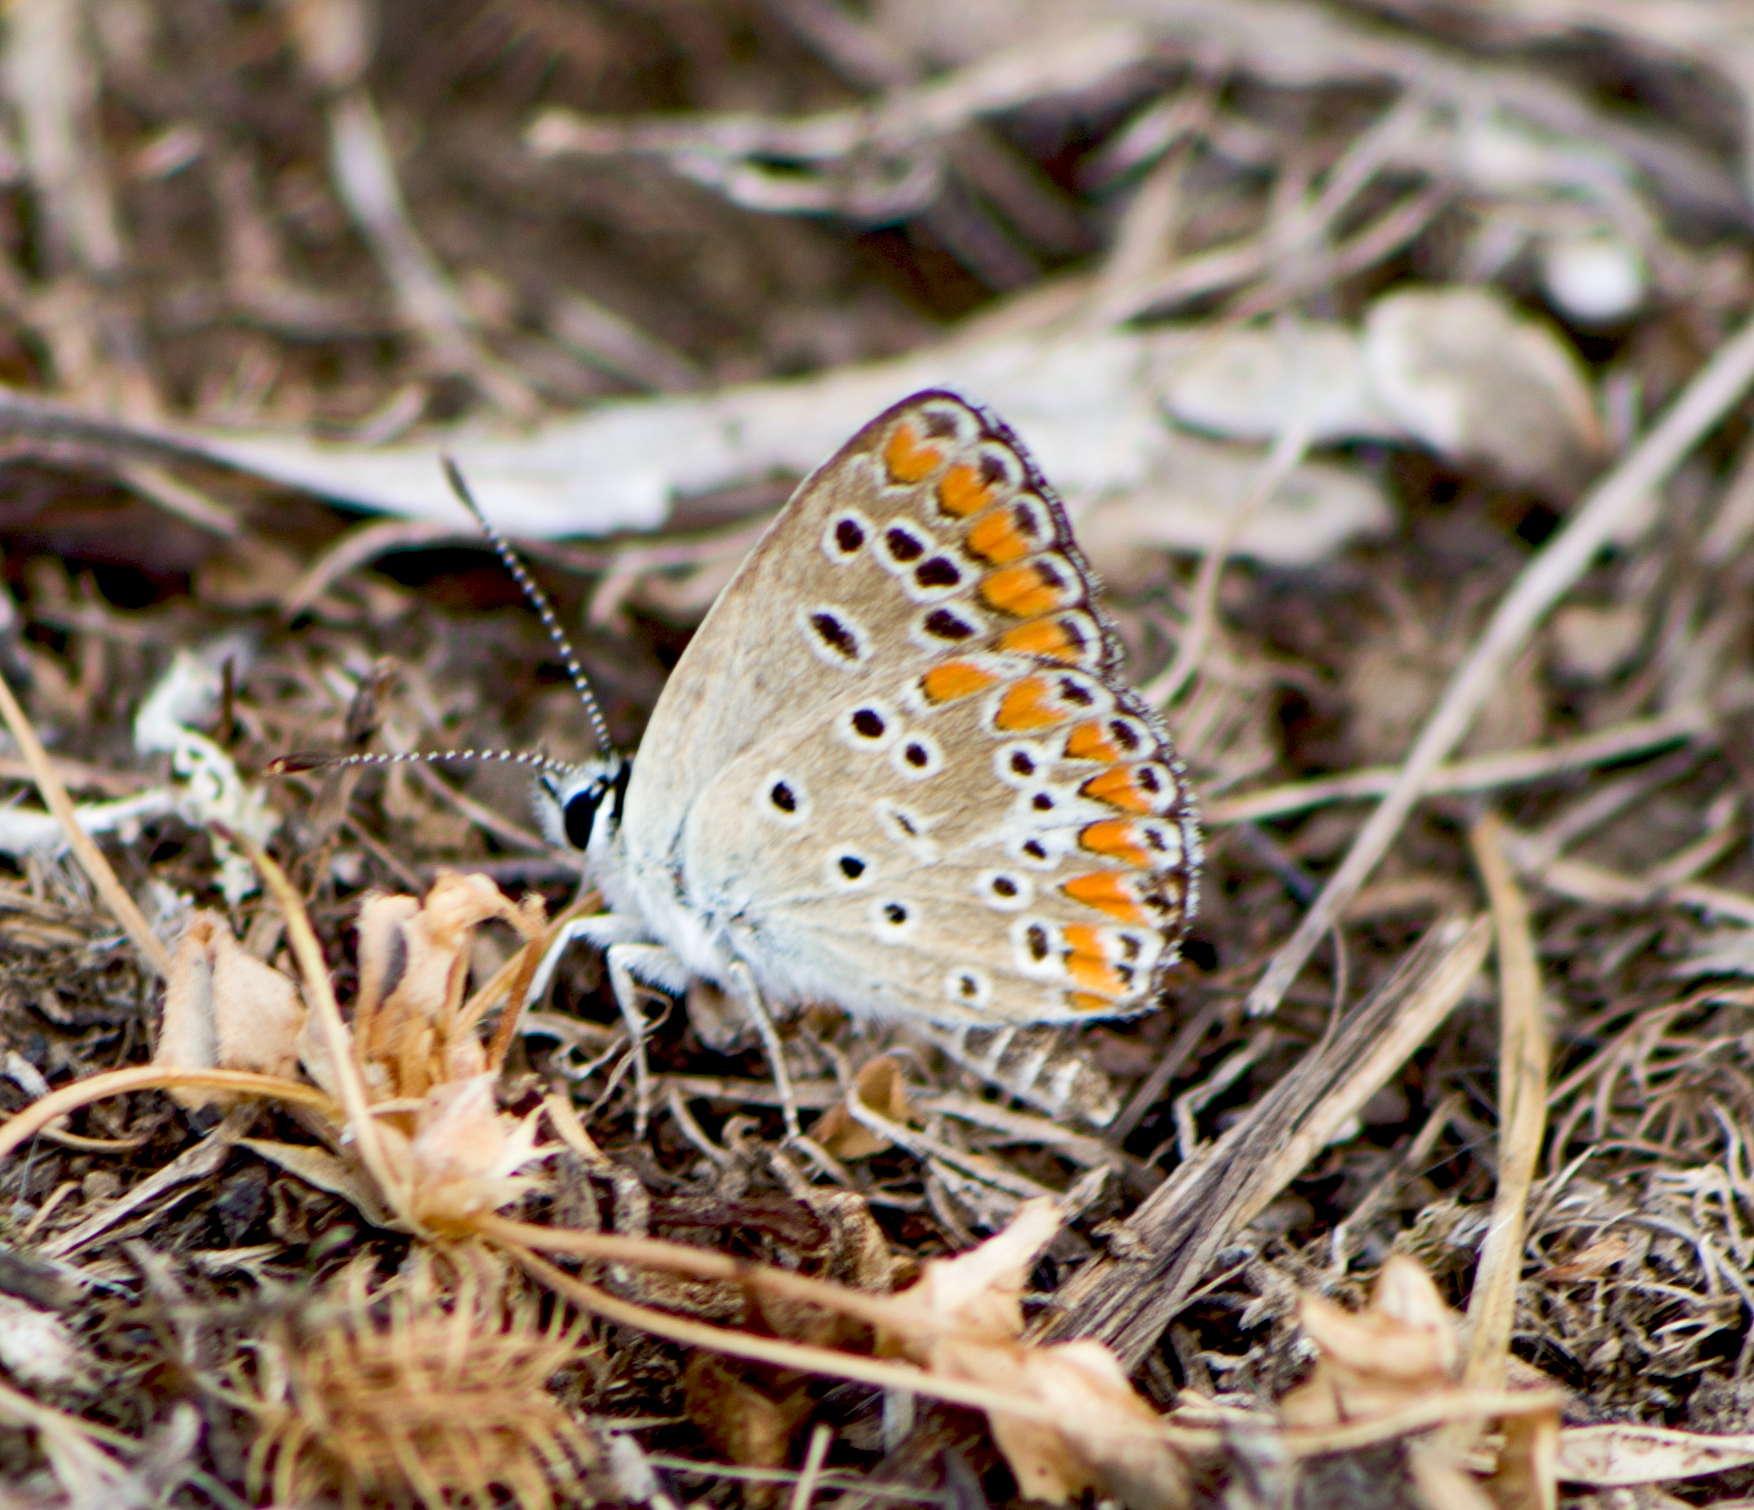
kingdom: Animalia
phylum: Arthropoda
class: Insecta
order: Lepidoptera
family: Lycaenidae
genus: Aricia
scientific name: Aricia agestis
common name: Brown argus
